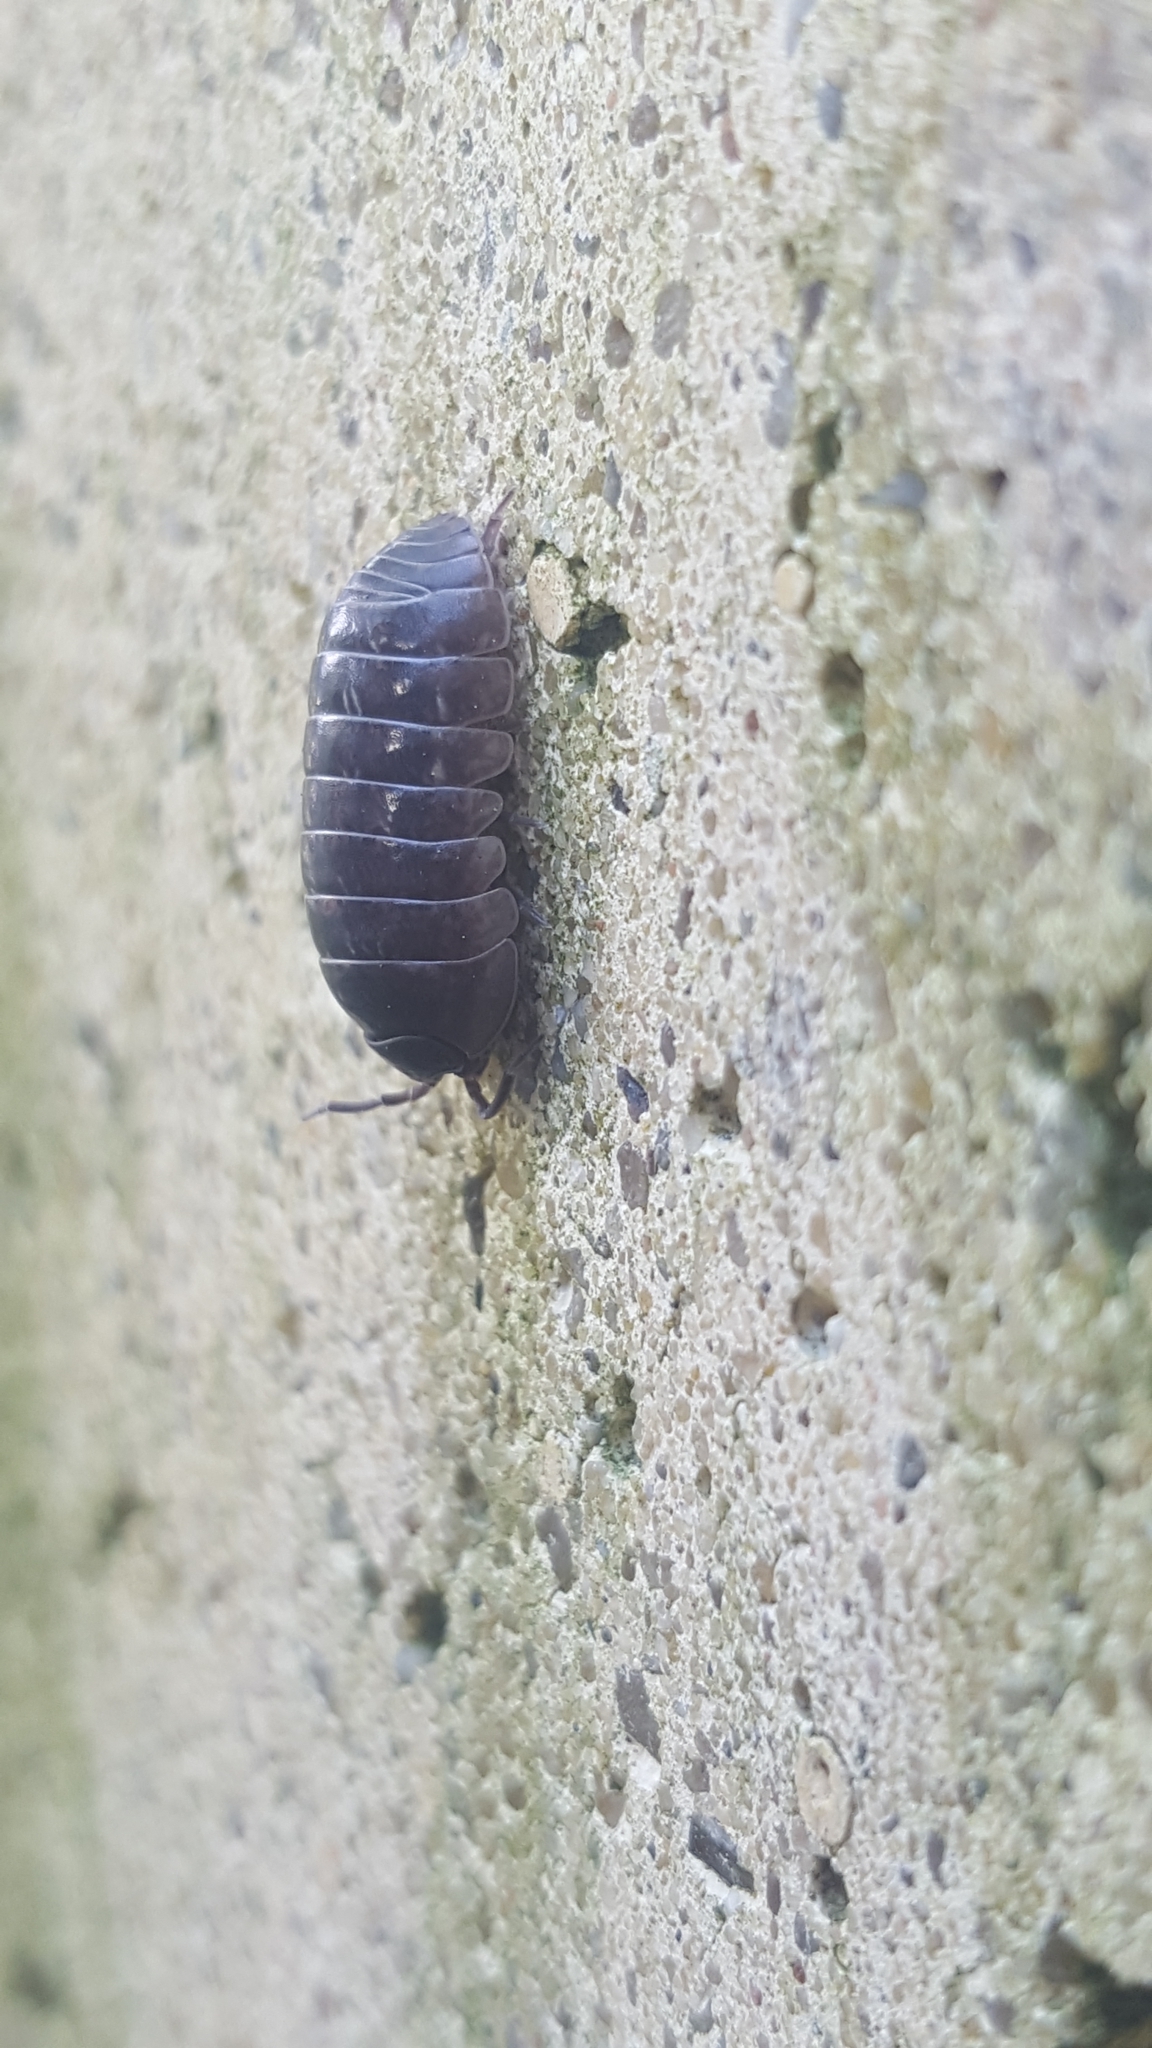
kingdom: Animalia
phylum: Arthropoda
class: Malacostraca
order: Isopoda
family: Armadillidiidae
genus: Armadillidium
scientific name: Armadillidium vulgare
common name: Common pill woodlouse
